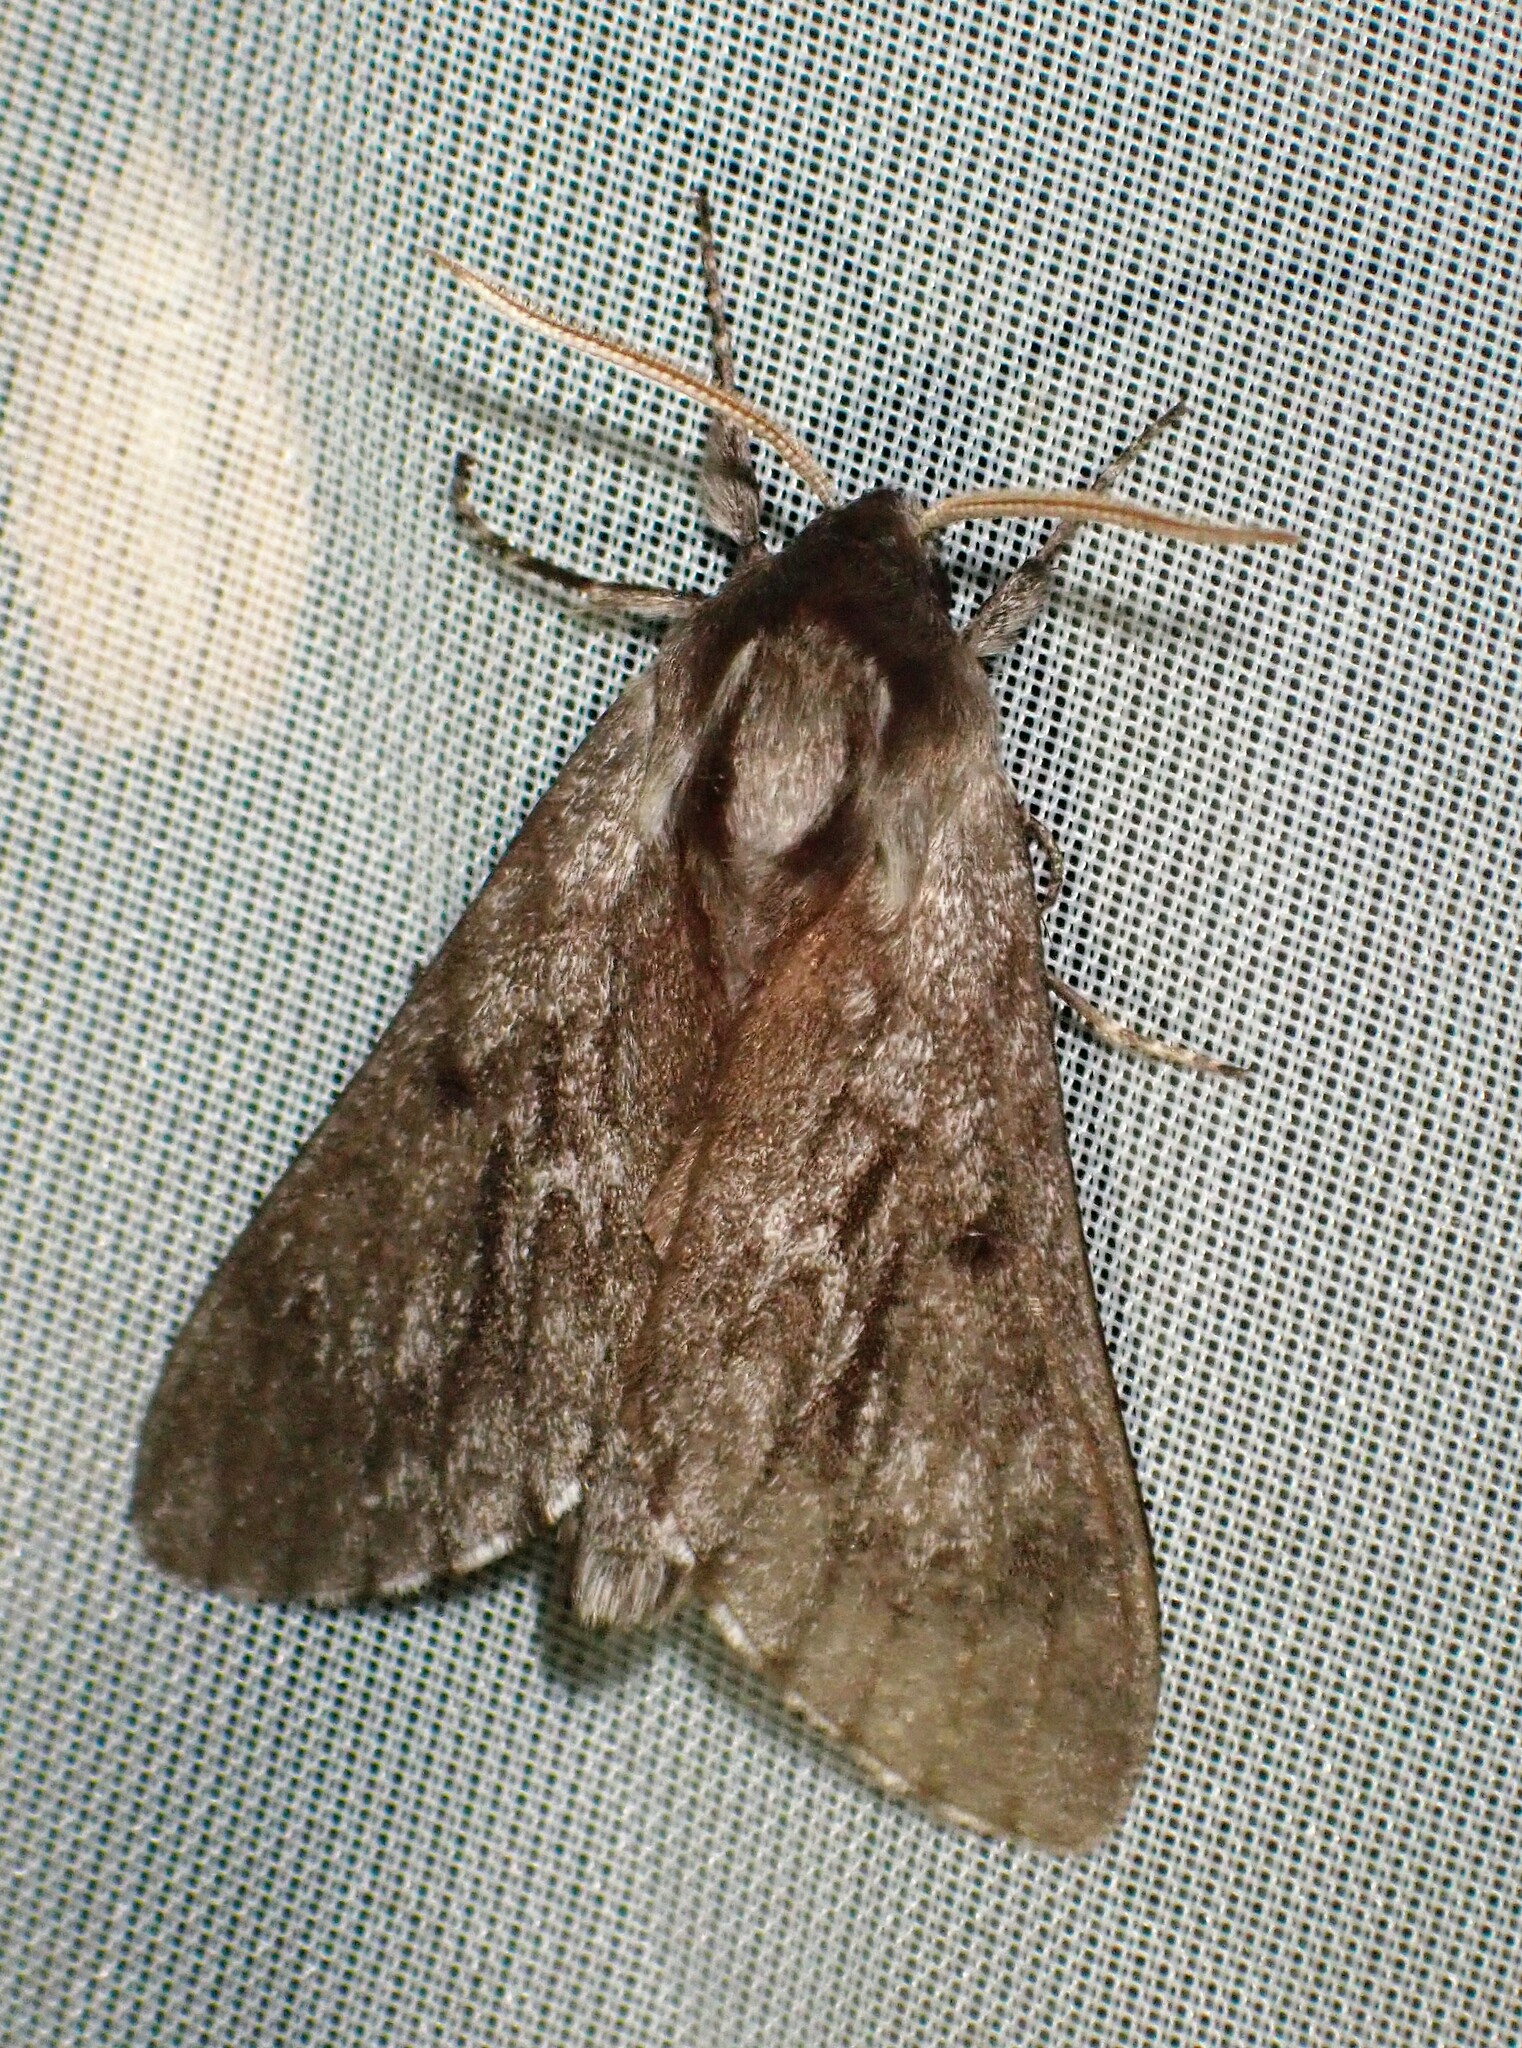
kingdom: Animalia
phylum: Arthropoda
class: Insecta
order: Lepidoptera
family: Sphingidae
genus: Lapara
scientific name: Lapara bombycoides
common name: Northern pine sphinx
